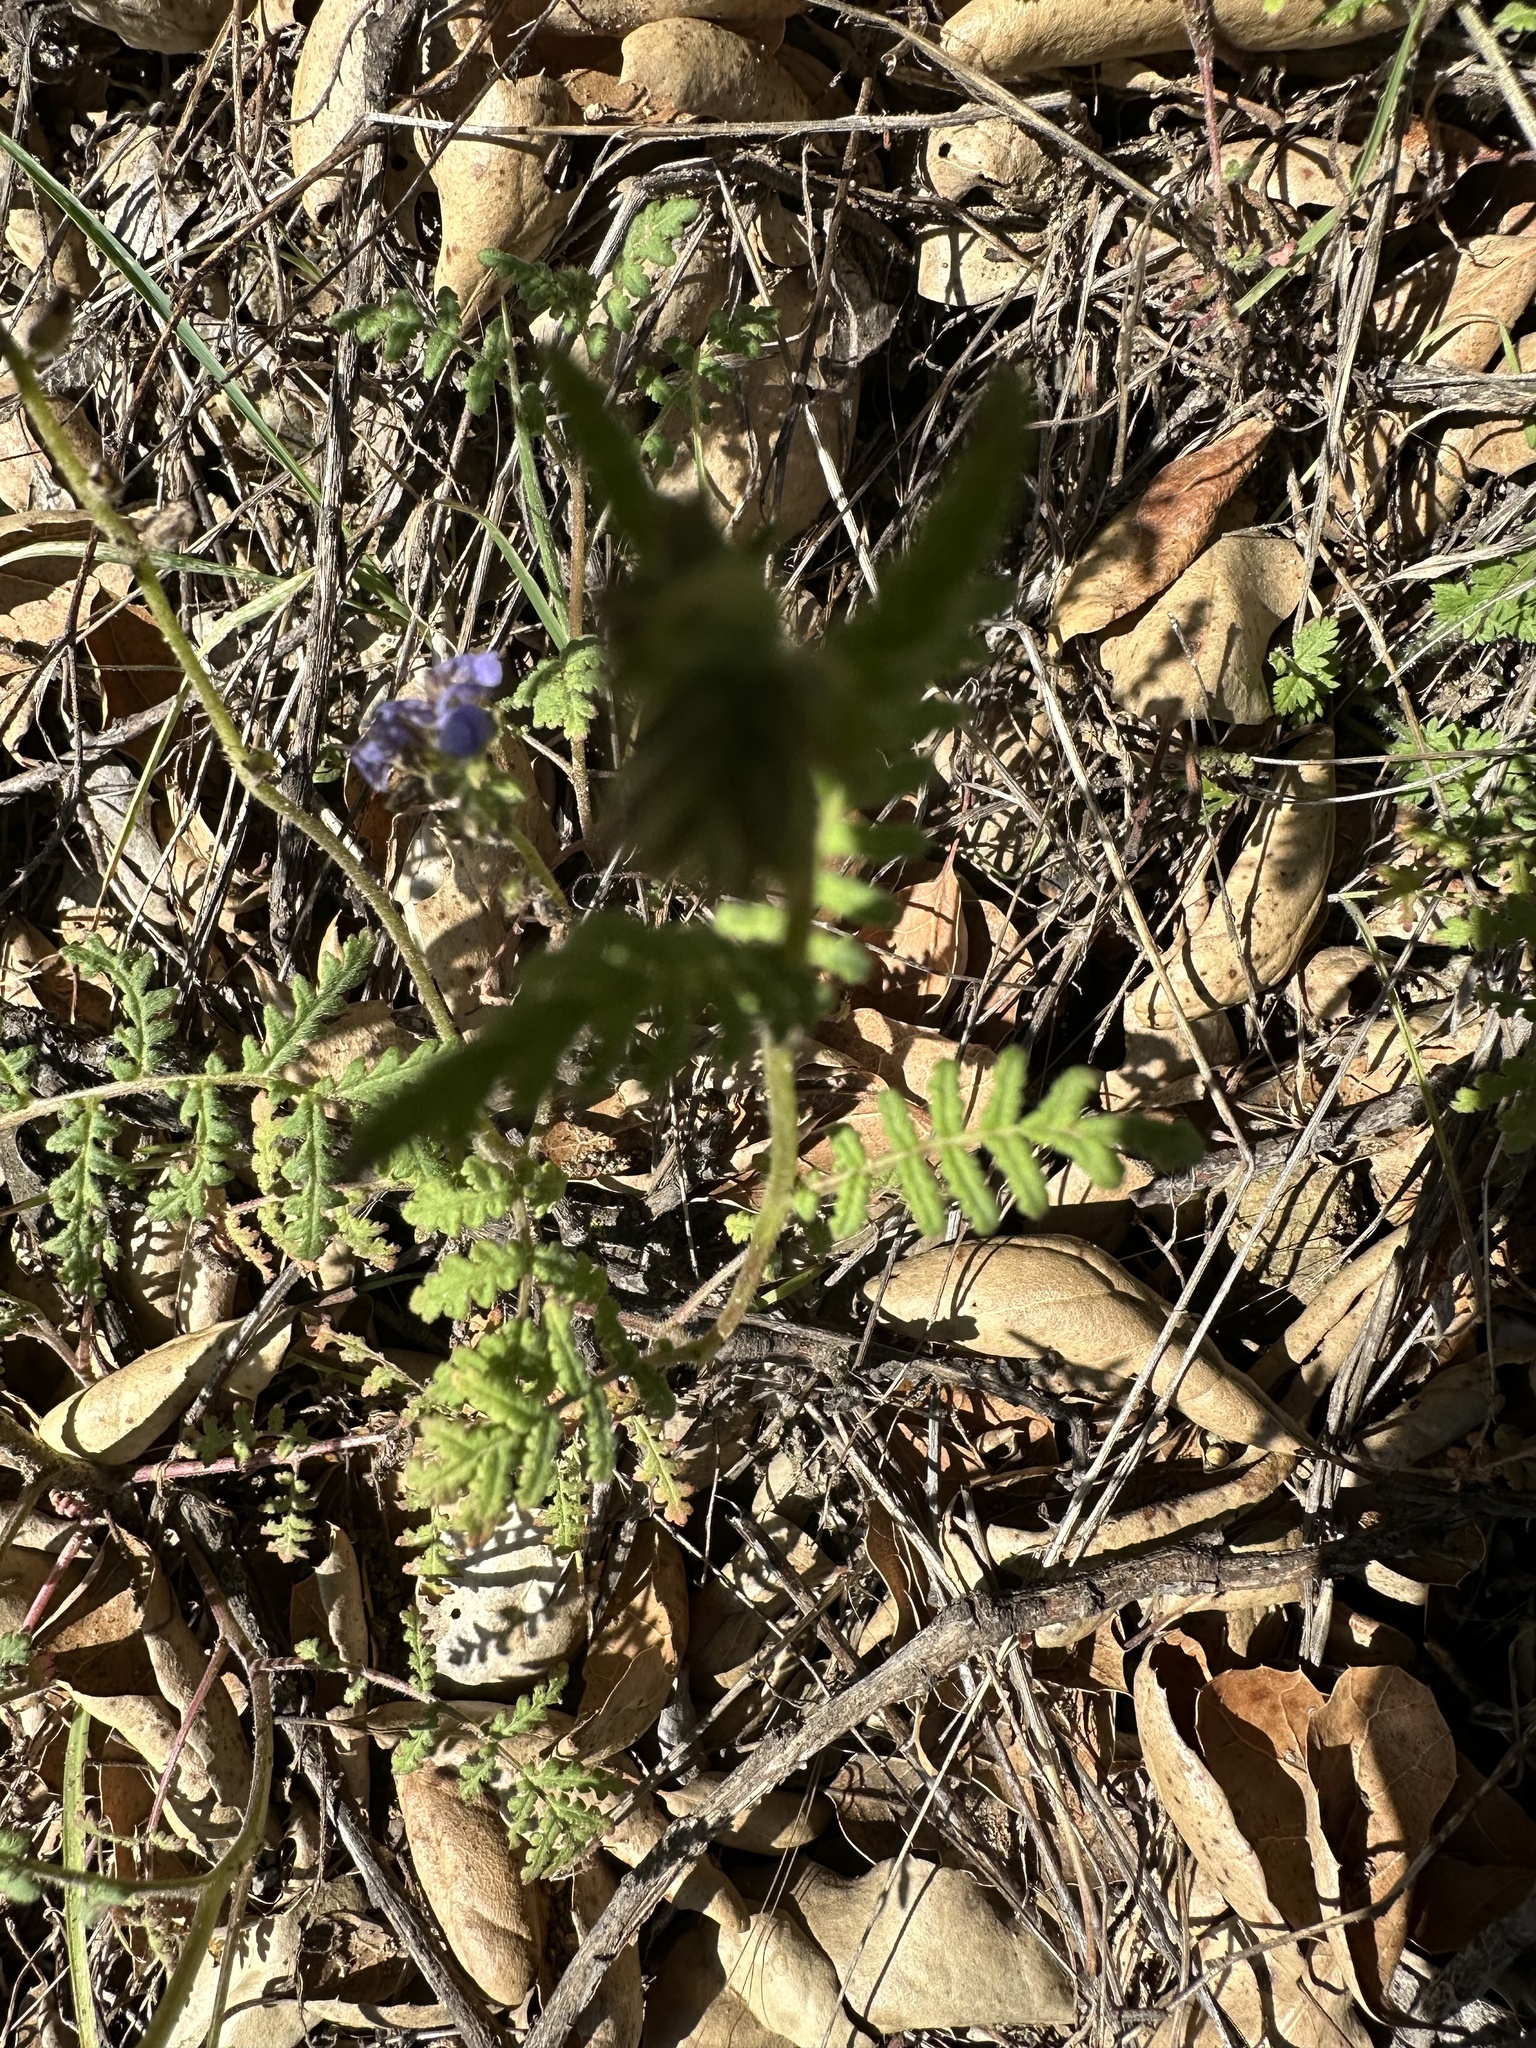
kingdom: Plantae
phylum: Tracheophyta
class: Magnoliopsida
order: Boraginales
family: Hydrophyllaceae
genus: Phacelia
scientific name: Phacelia distans
